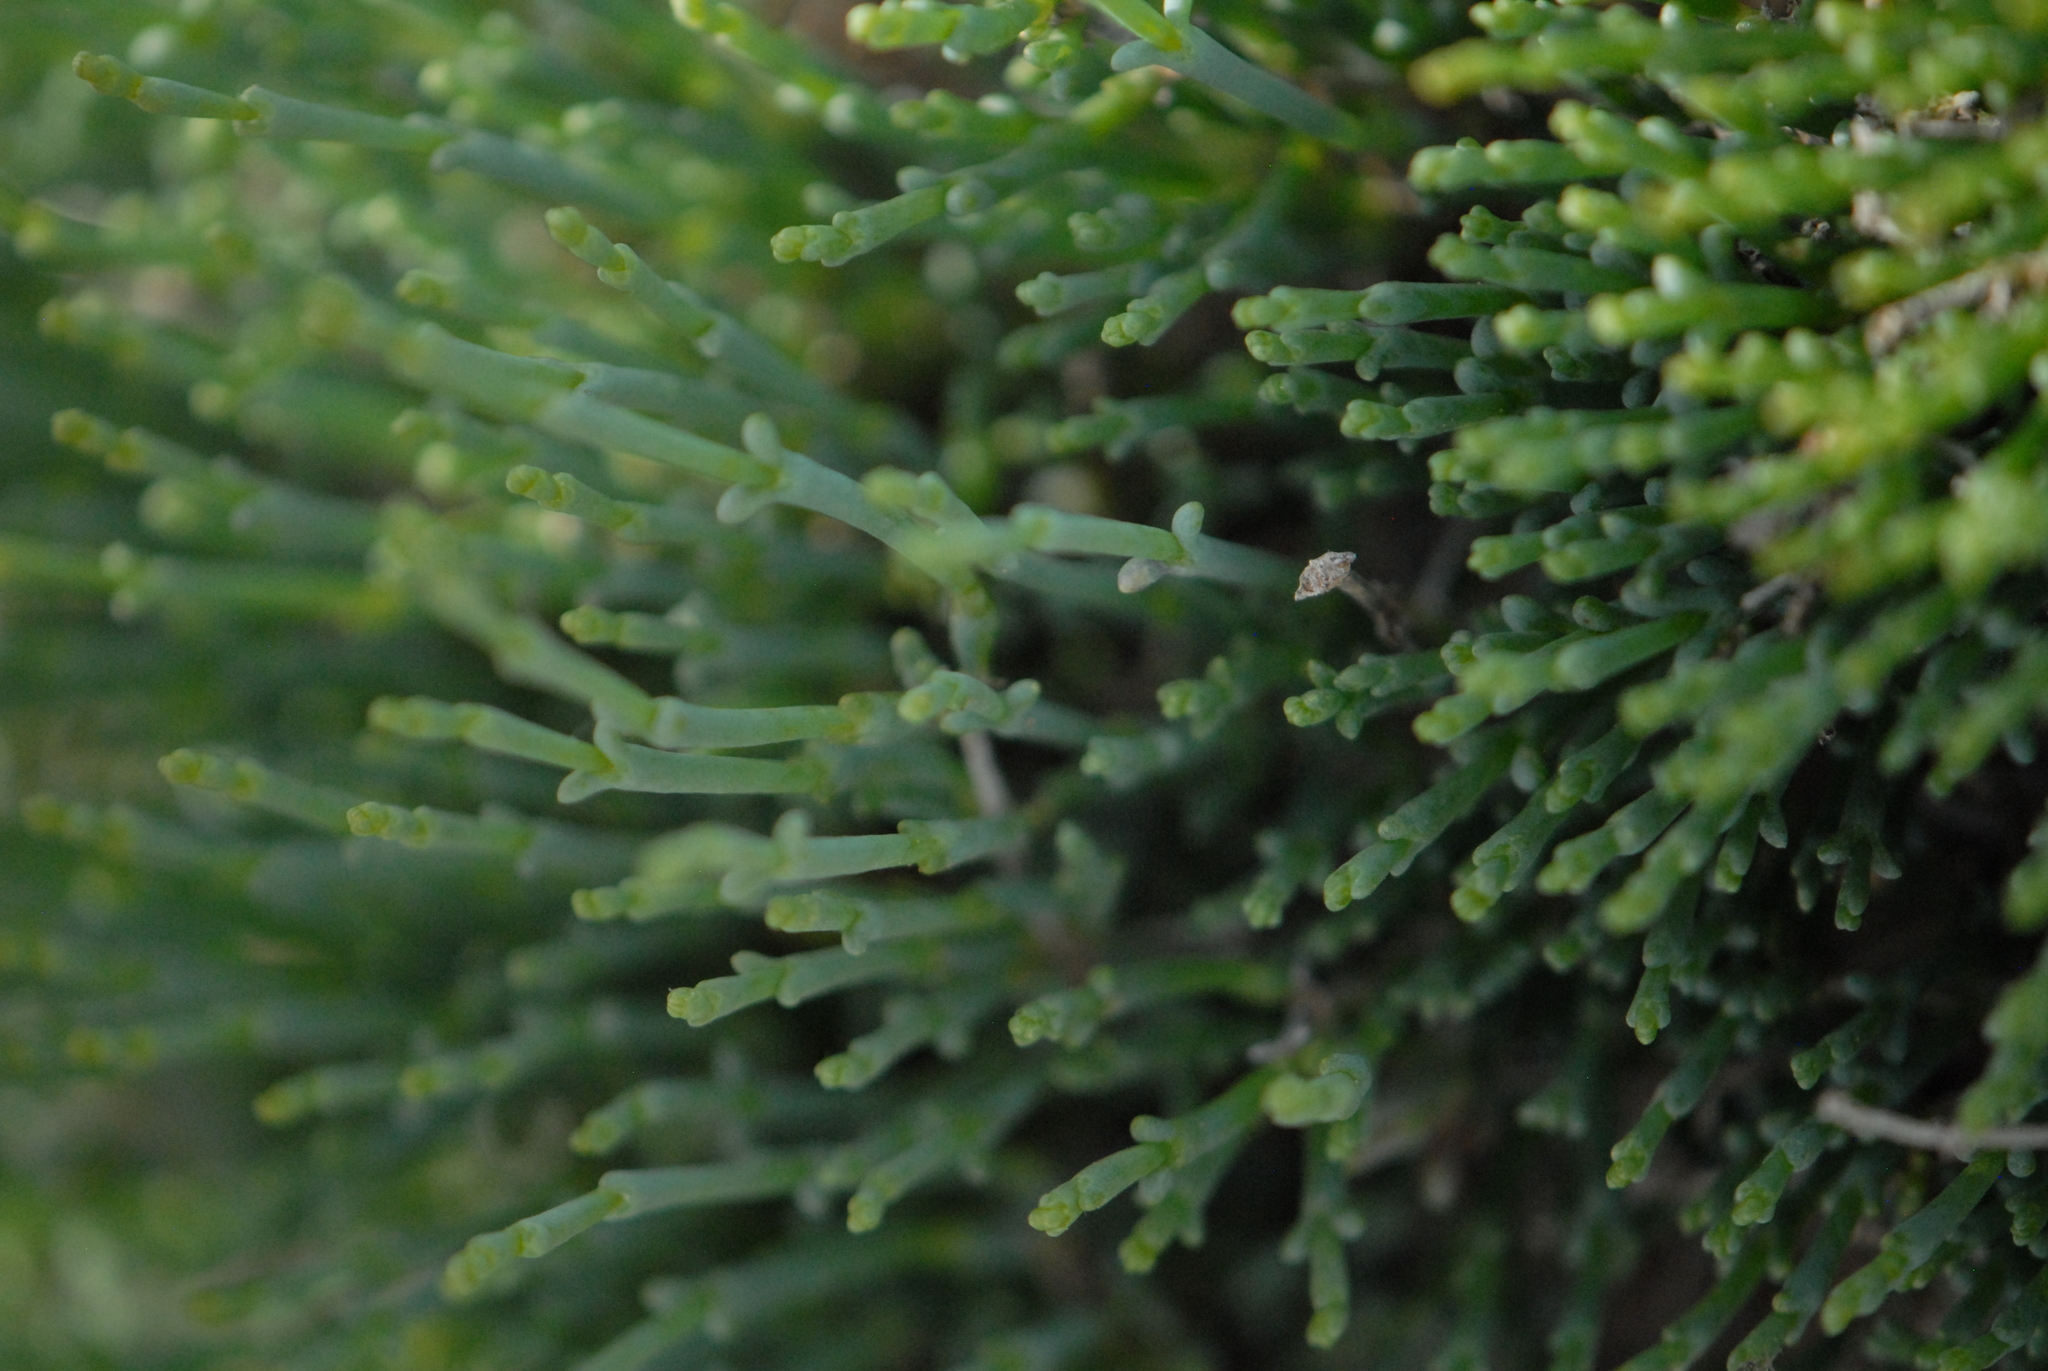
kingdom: Plantae
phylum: Tracheophyta
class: Magnoliopsida
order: Caryophyllales
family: Amaranthaceae
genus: Salicornia
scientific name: Salicornia perennans
